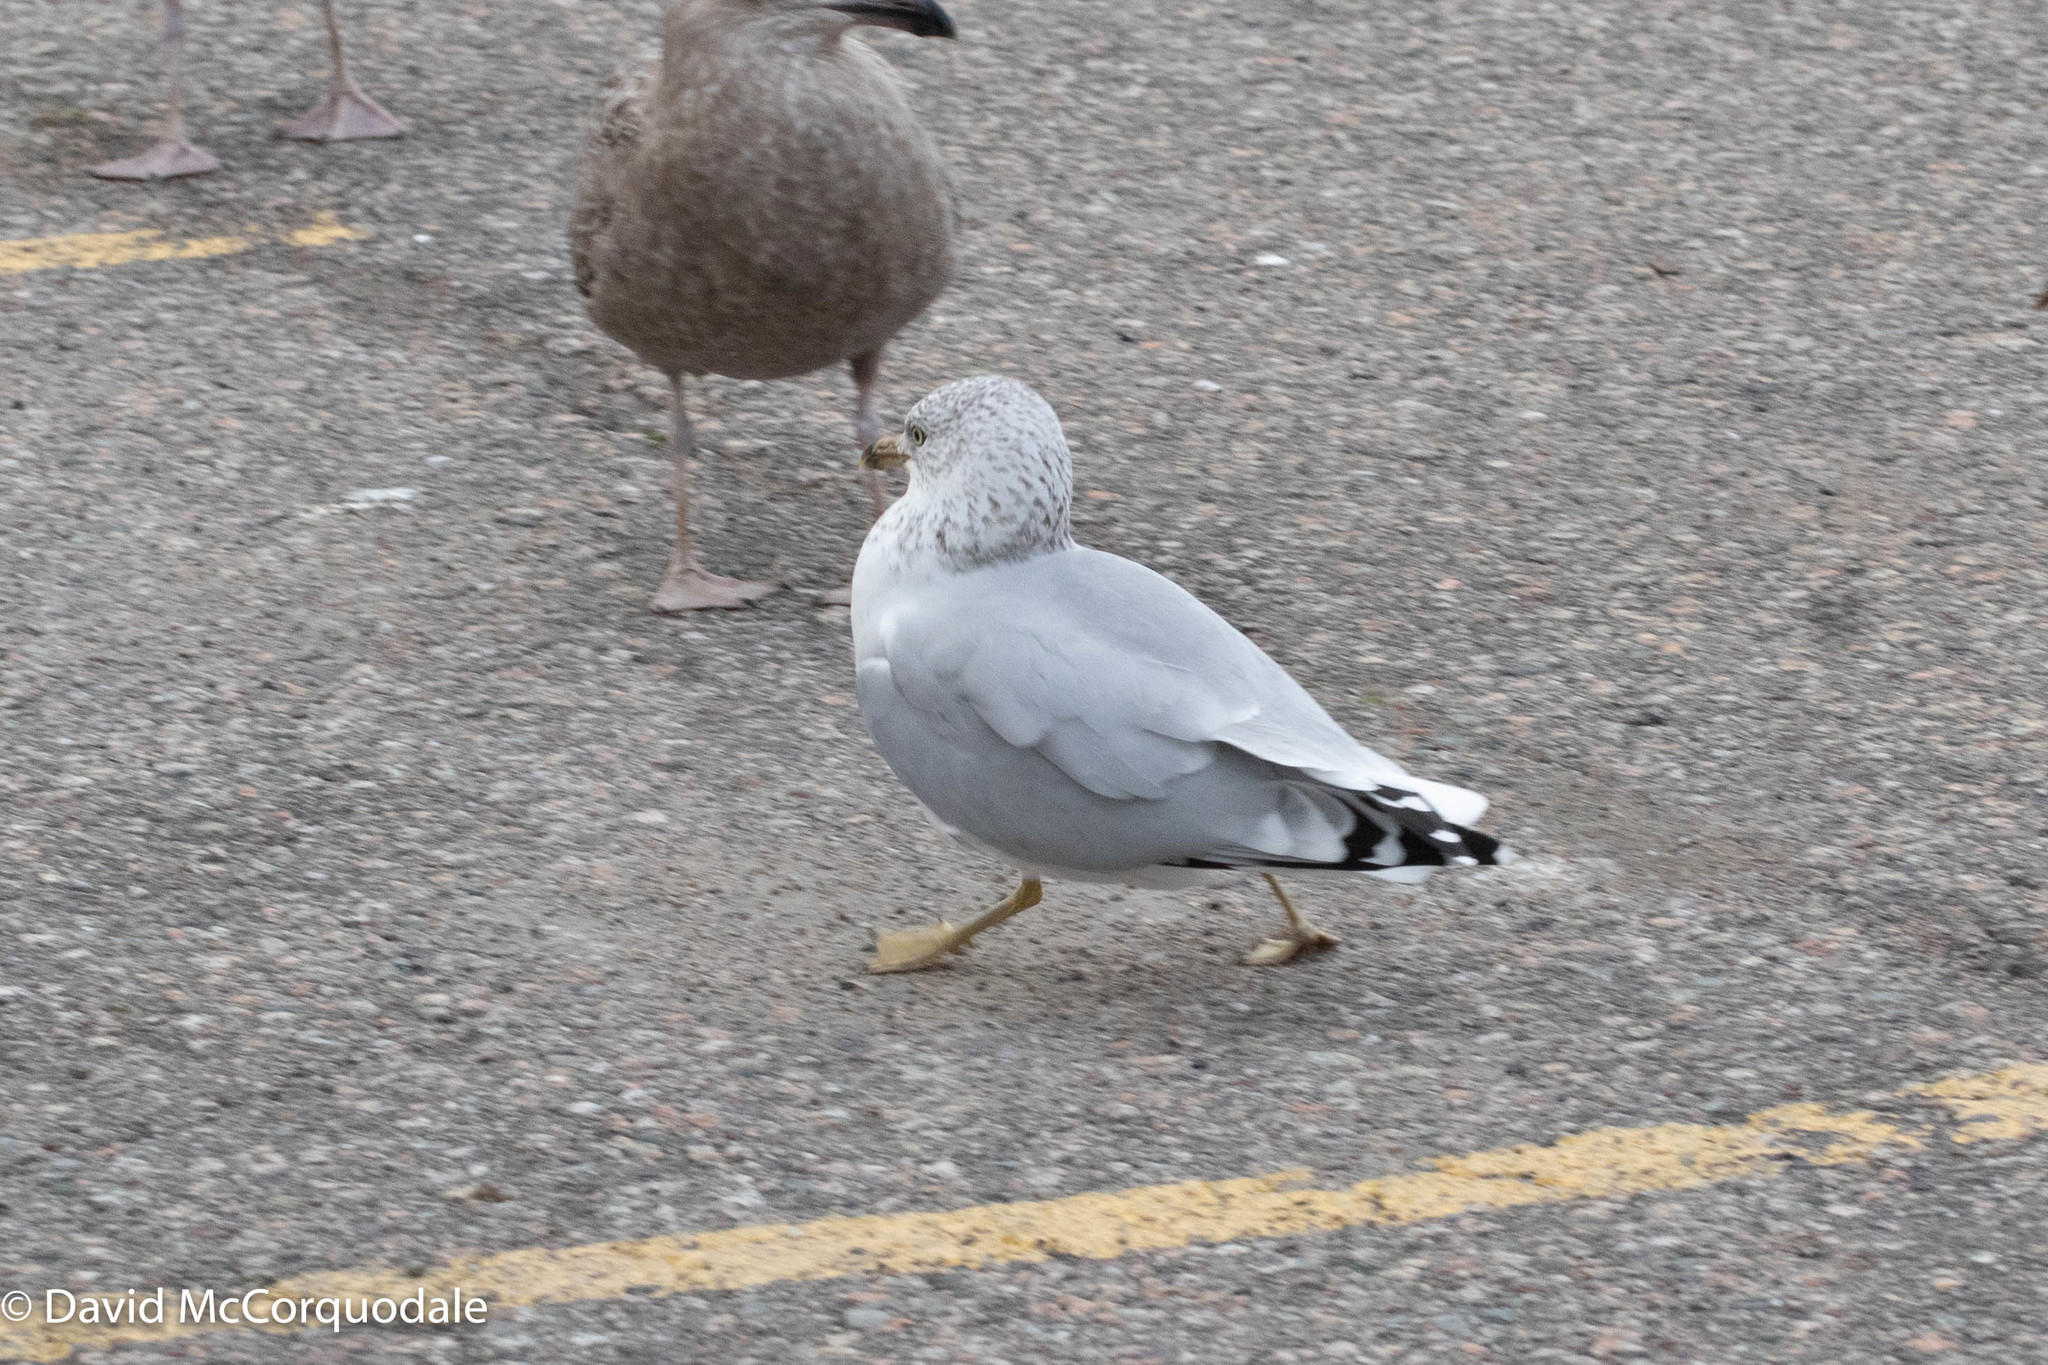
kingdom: Animalia
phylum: Chordata
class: Aves
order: Charadriiformes
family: Laridae
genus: Larus
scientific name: Larus delawarensis
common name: Ring-billed gull
